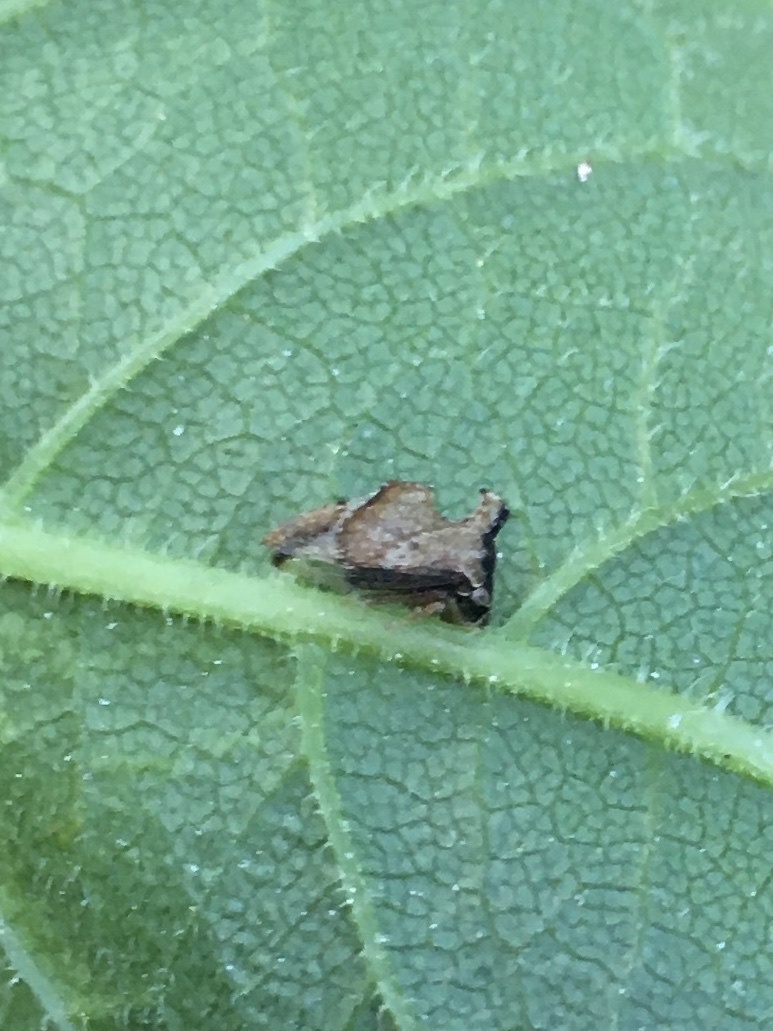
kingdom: Animalia
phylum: Arthropoda
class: Insecta
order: Hemiptera
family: Membracidae
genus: Entylia
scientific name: Entylia carinata
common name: Keeled treehopper
